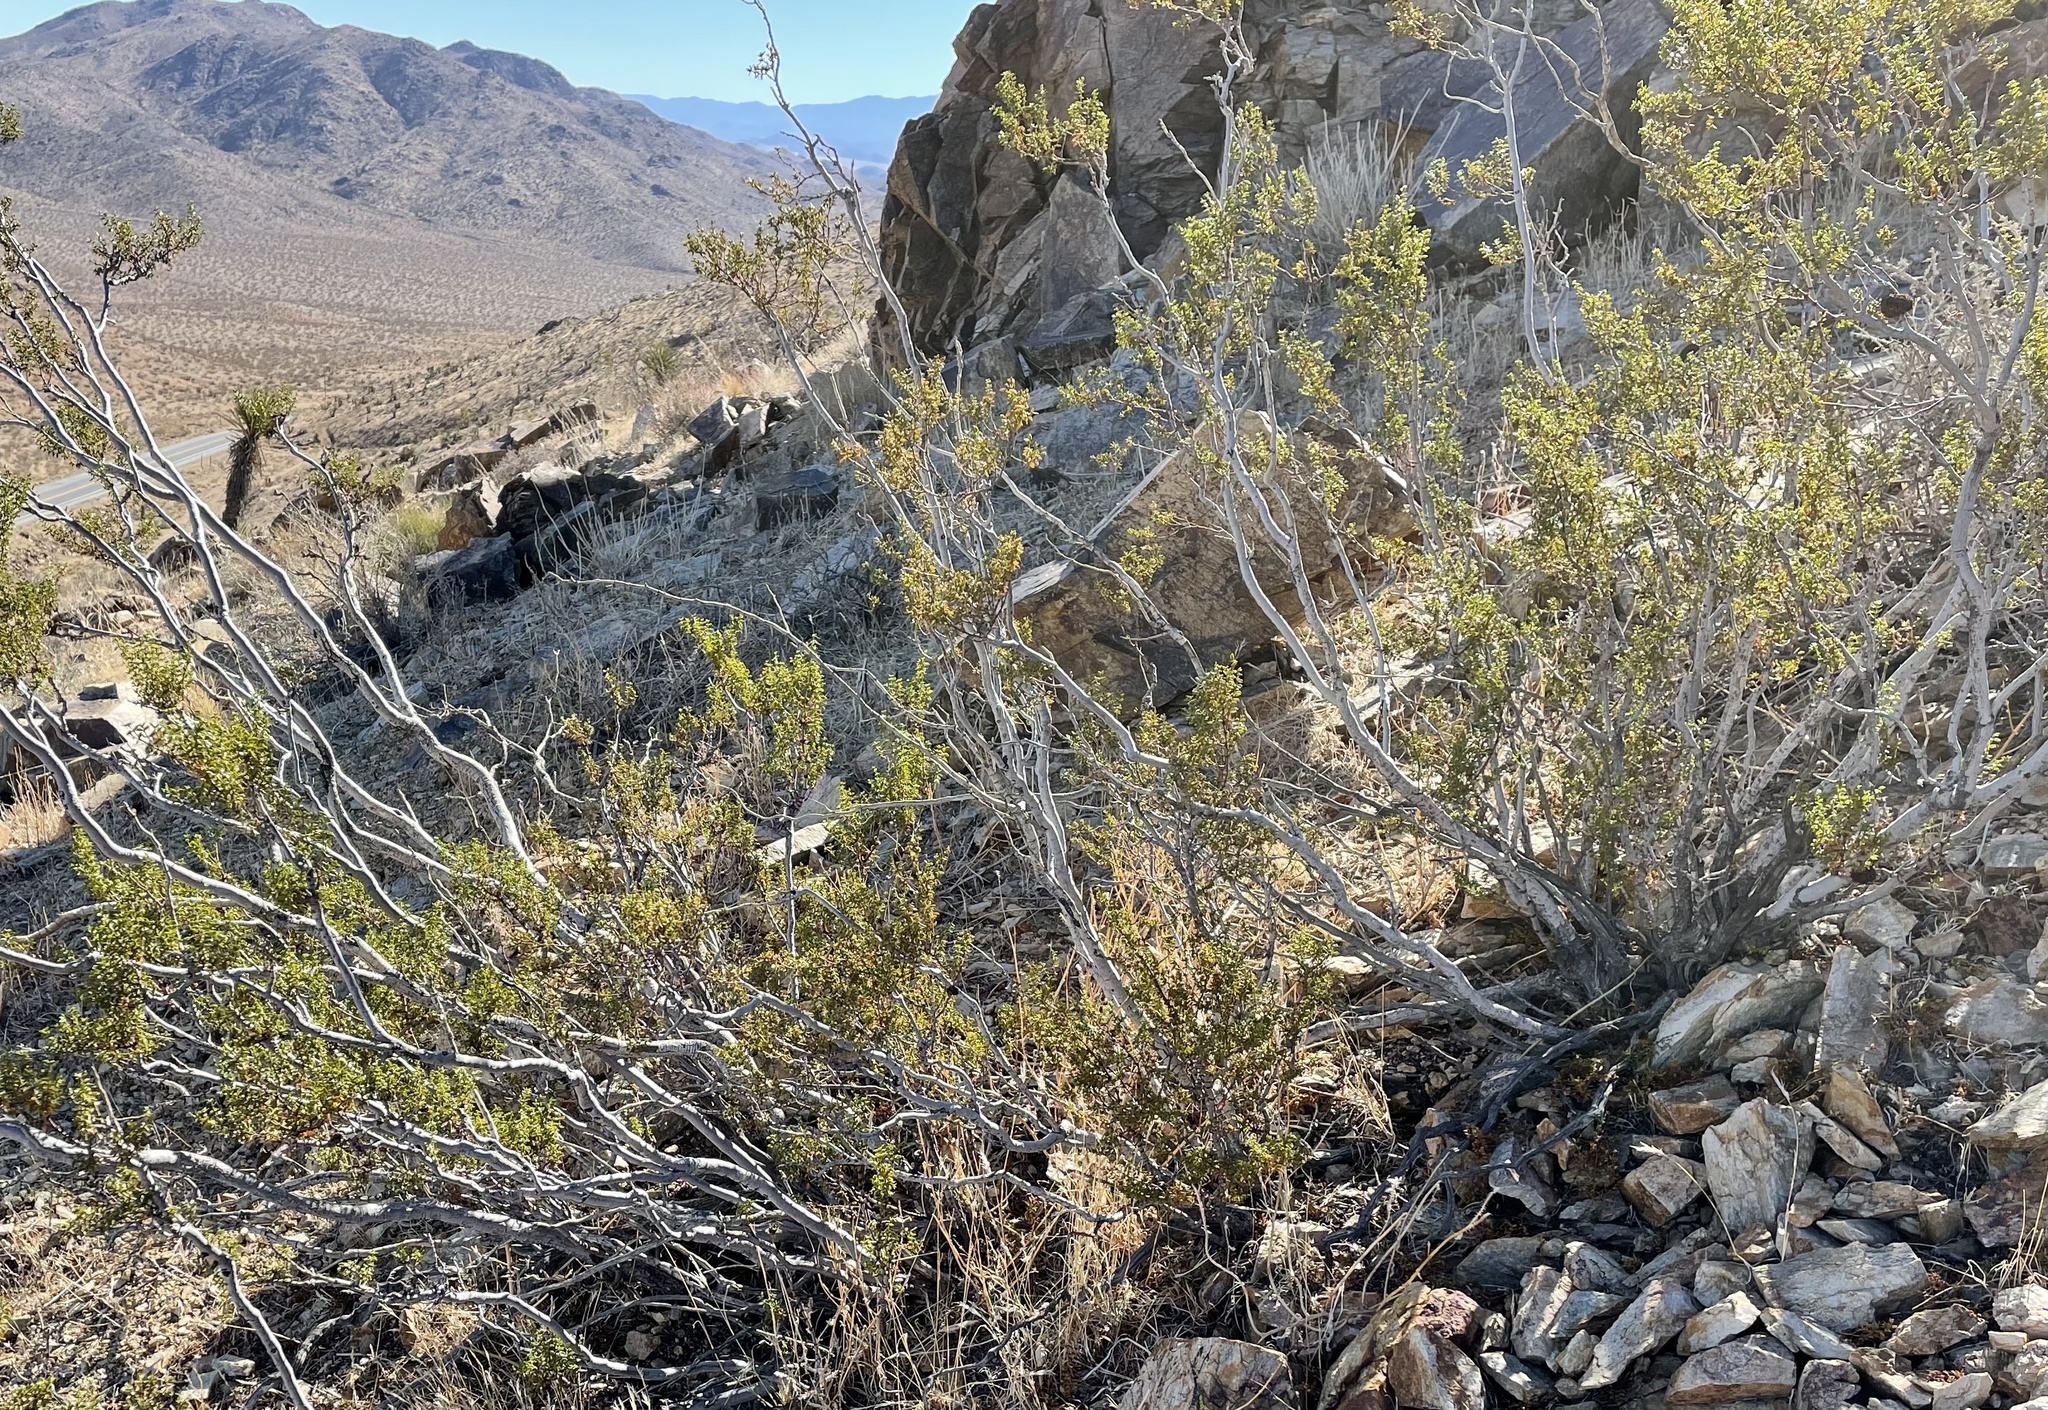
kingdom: Plantae
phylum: Tracheophyta
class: Magnoliopsida
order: Zygophyllales
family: Zygophyllaceae
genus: Larrea
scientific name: Larrea tridentata
